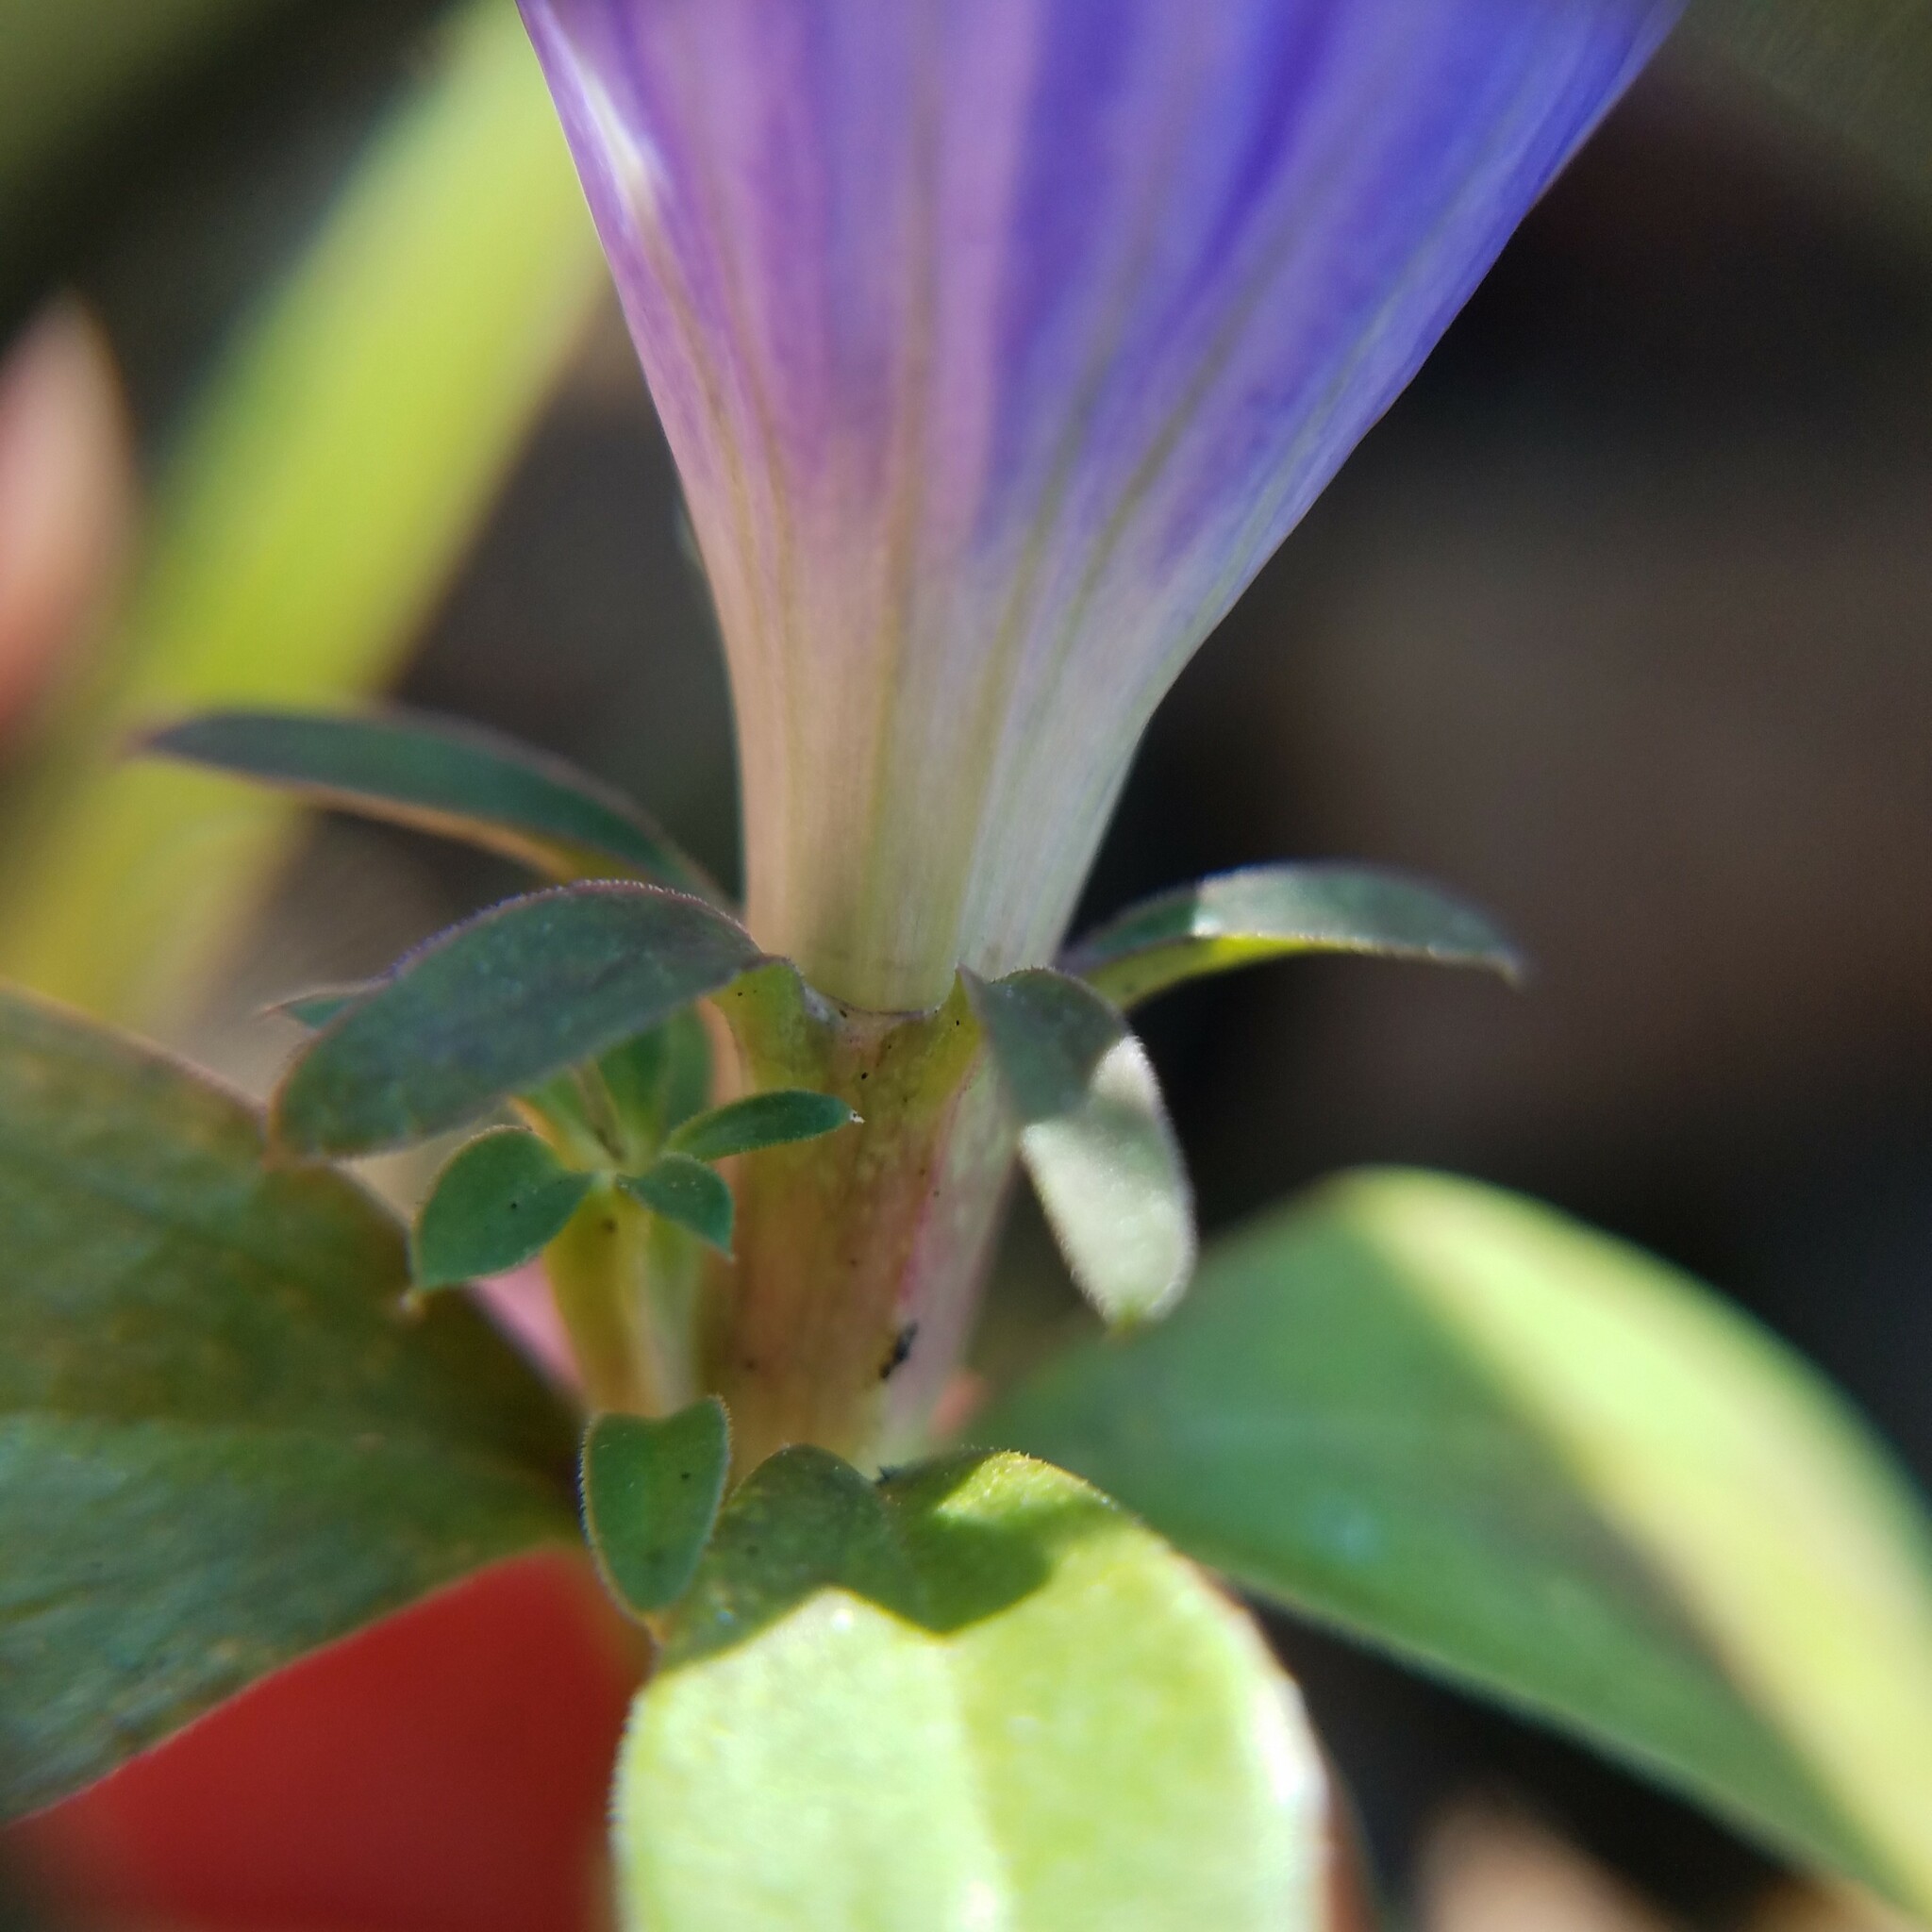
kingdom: Plantae
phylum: Tracheophyta
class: Magnoliopsida
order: Gentianales
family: Gentianaceae
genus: Gentiana
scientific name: Gentiana saponaria
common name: Soapwort gentian
